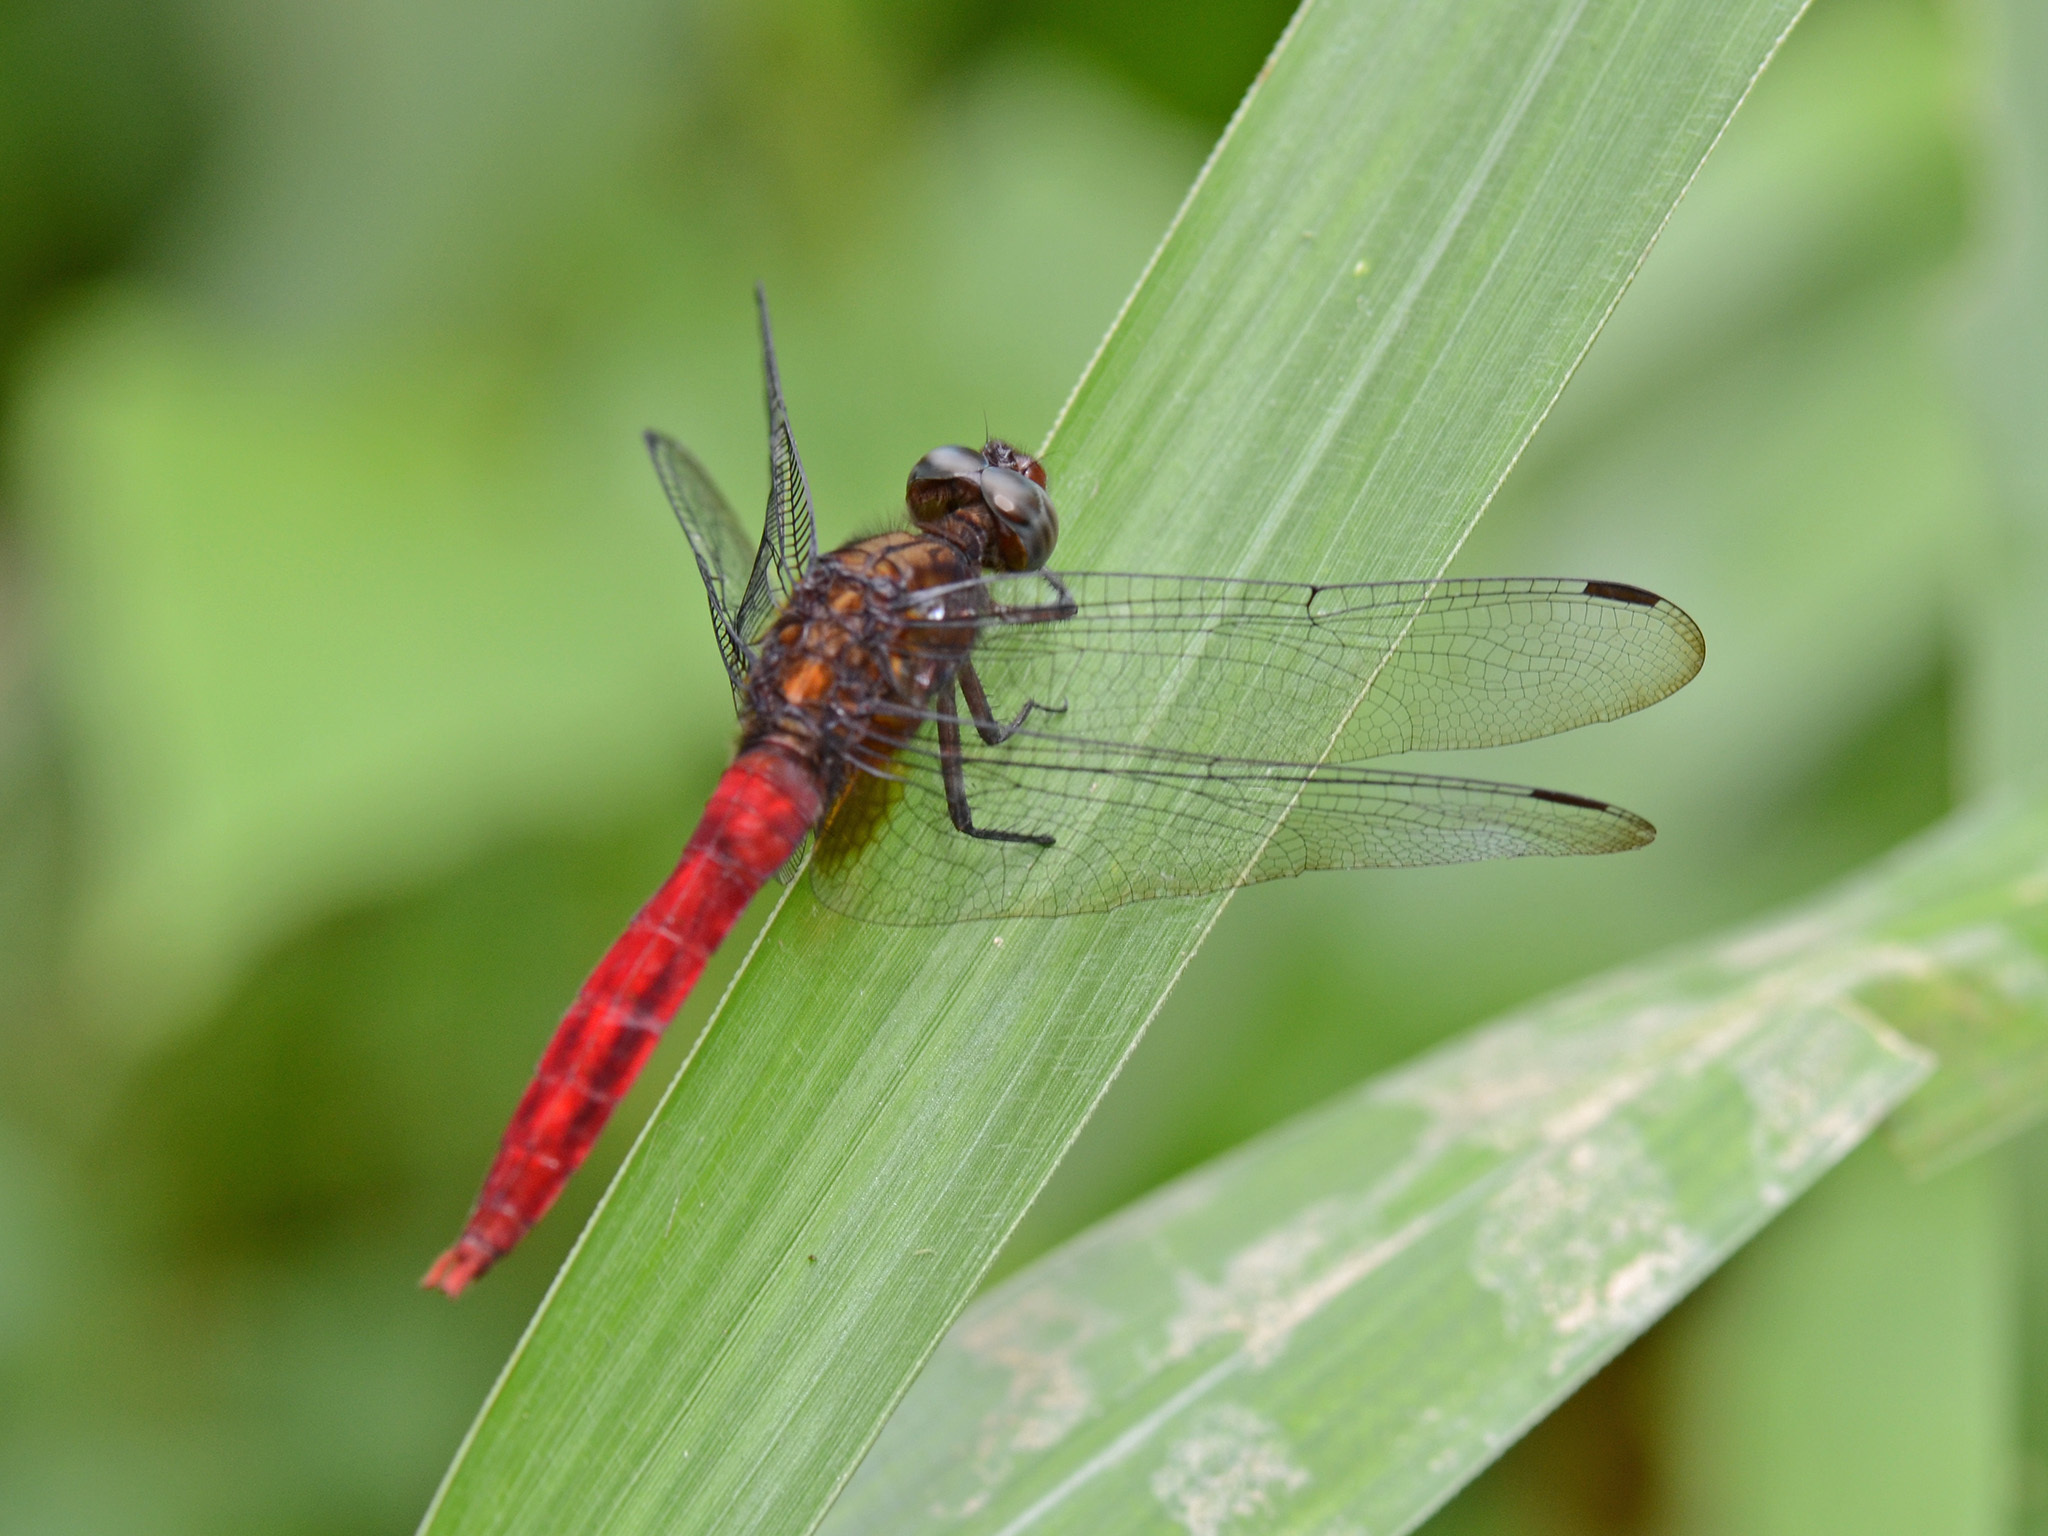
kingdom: Animalia
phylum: Arthropoda
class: Insecta
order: Odonata
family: Libellulidae
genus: Orthetrum
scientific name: Orthetrum chrysis
